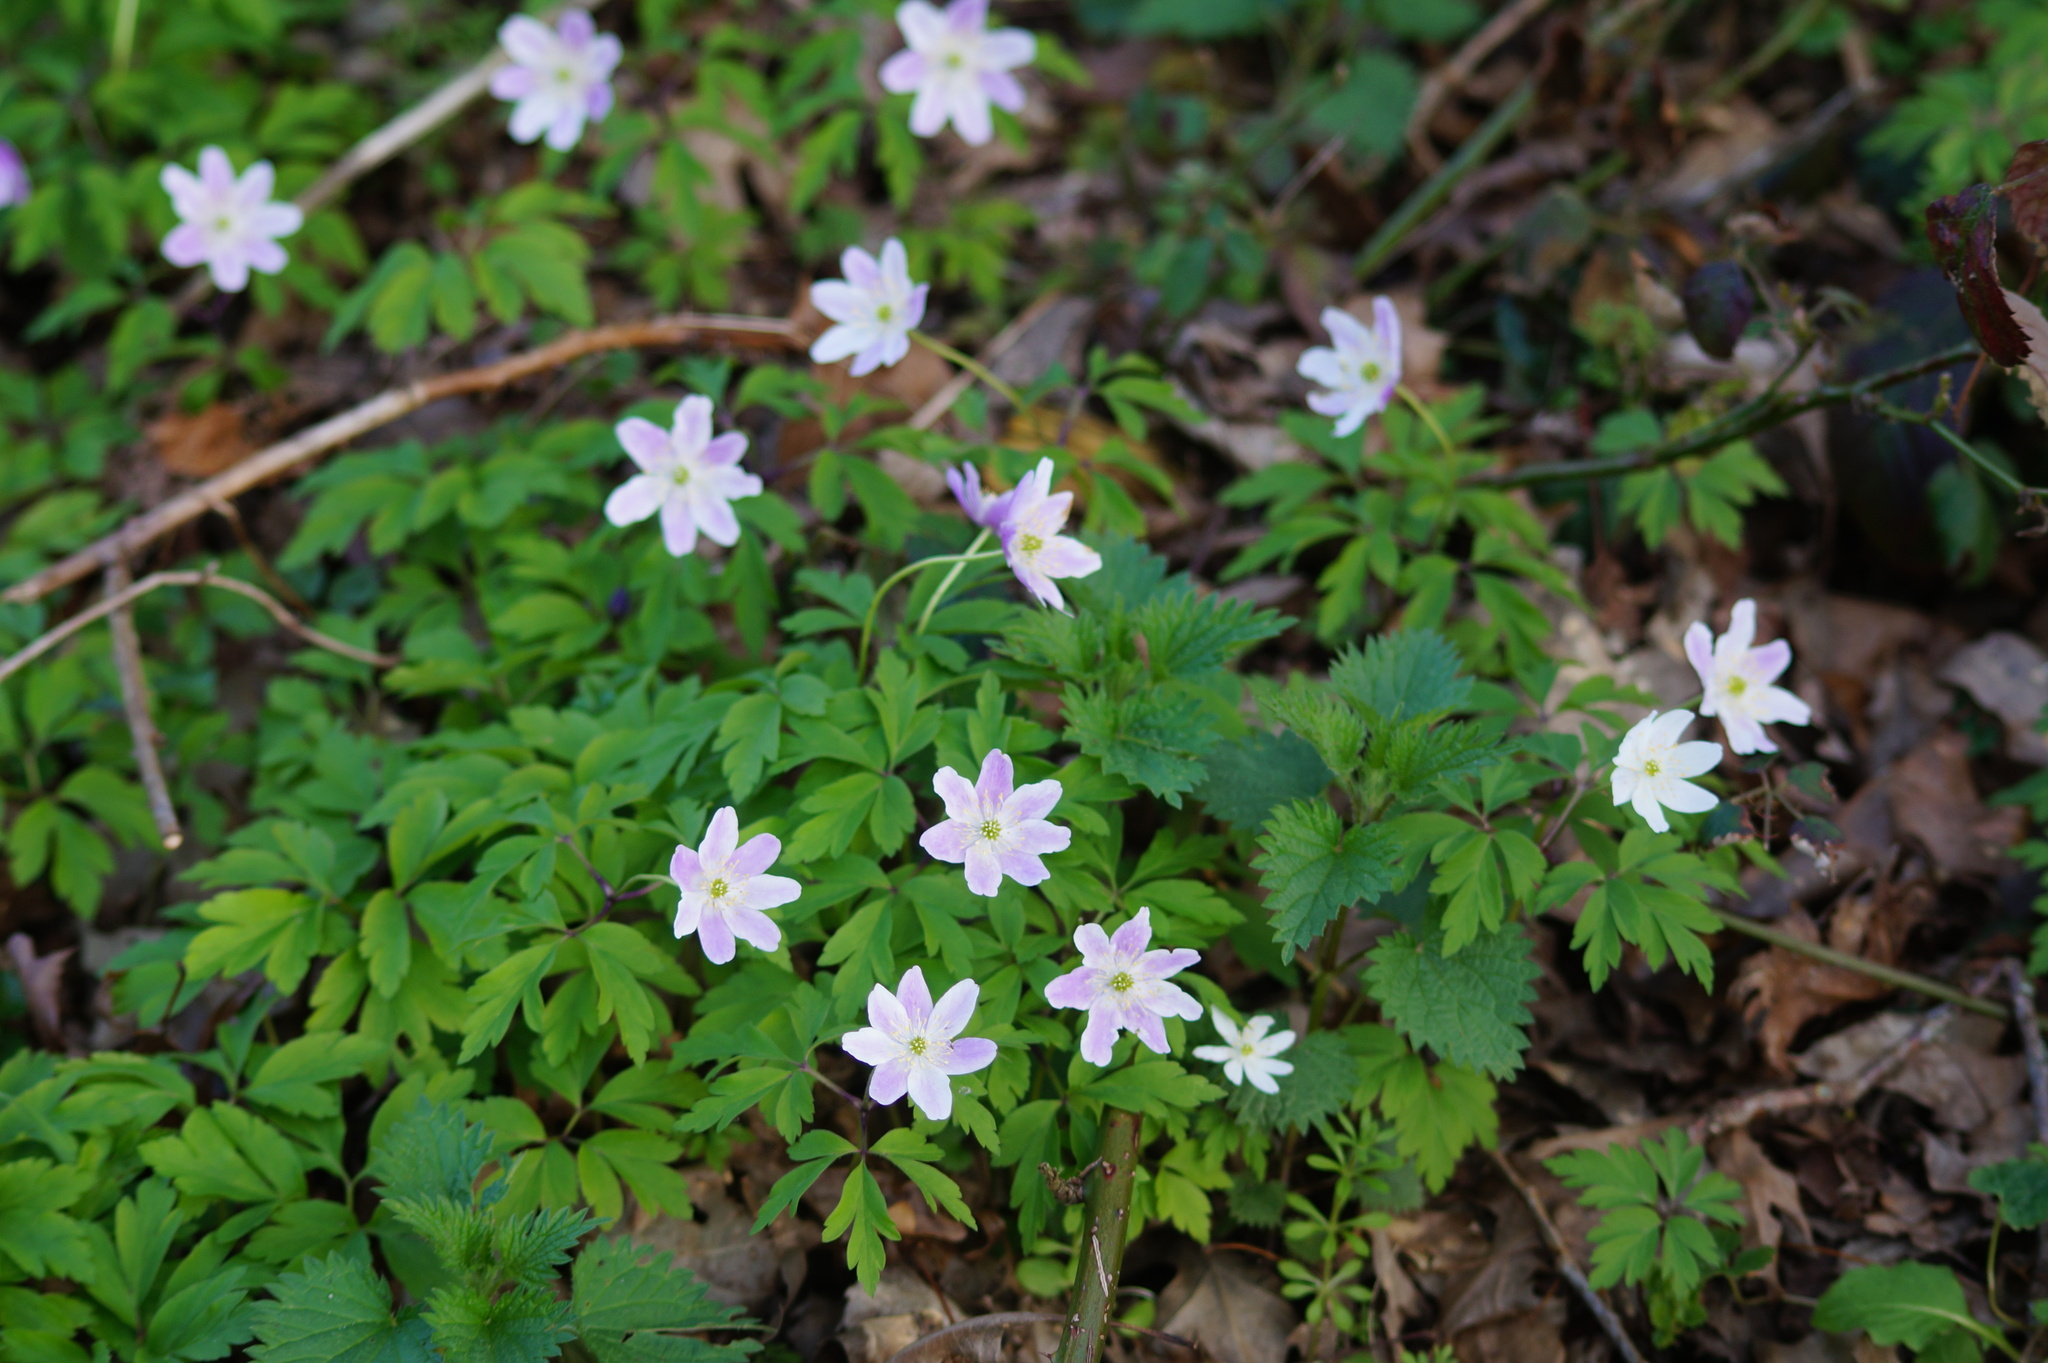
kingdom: Plantae
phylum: Tracheophyta
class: Magnoliopsida
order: Ranunculales
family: Ranunculaceae
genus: Anemone
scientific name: Anemone nemorosa
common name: Wood anemone
